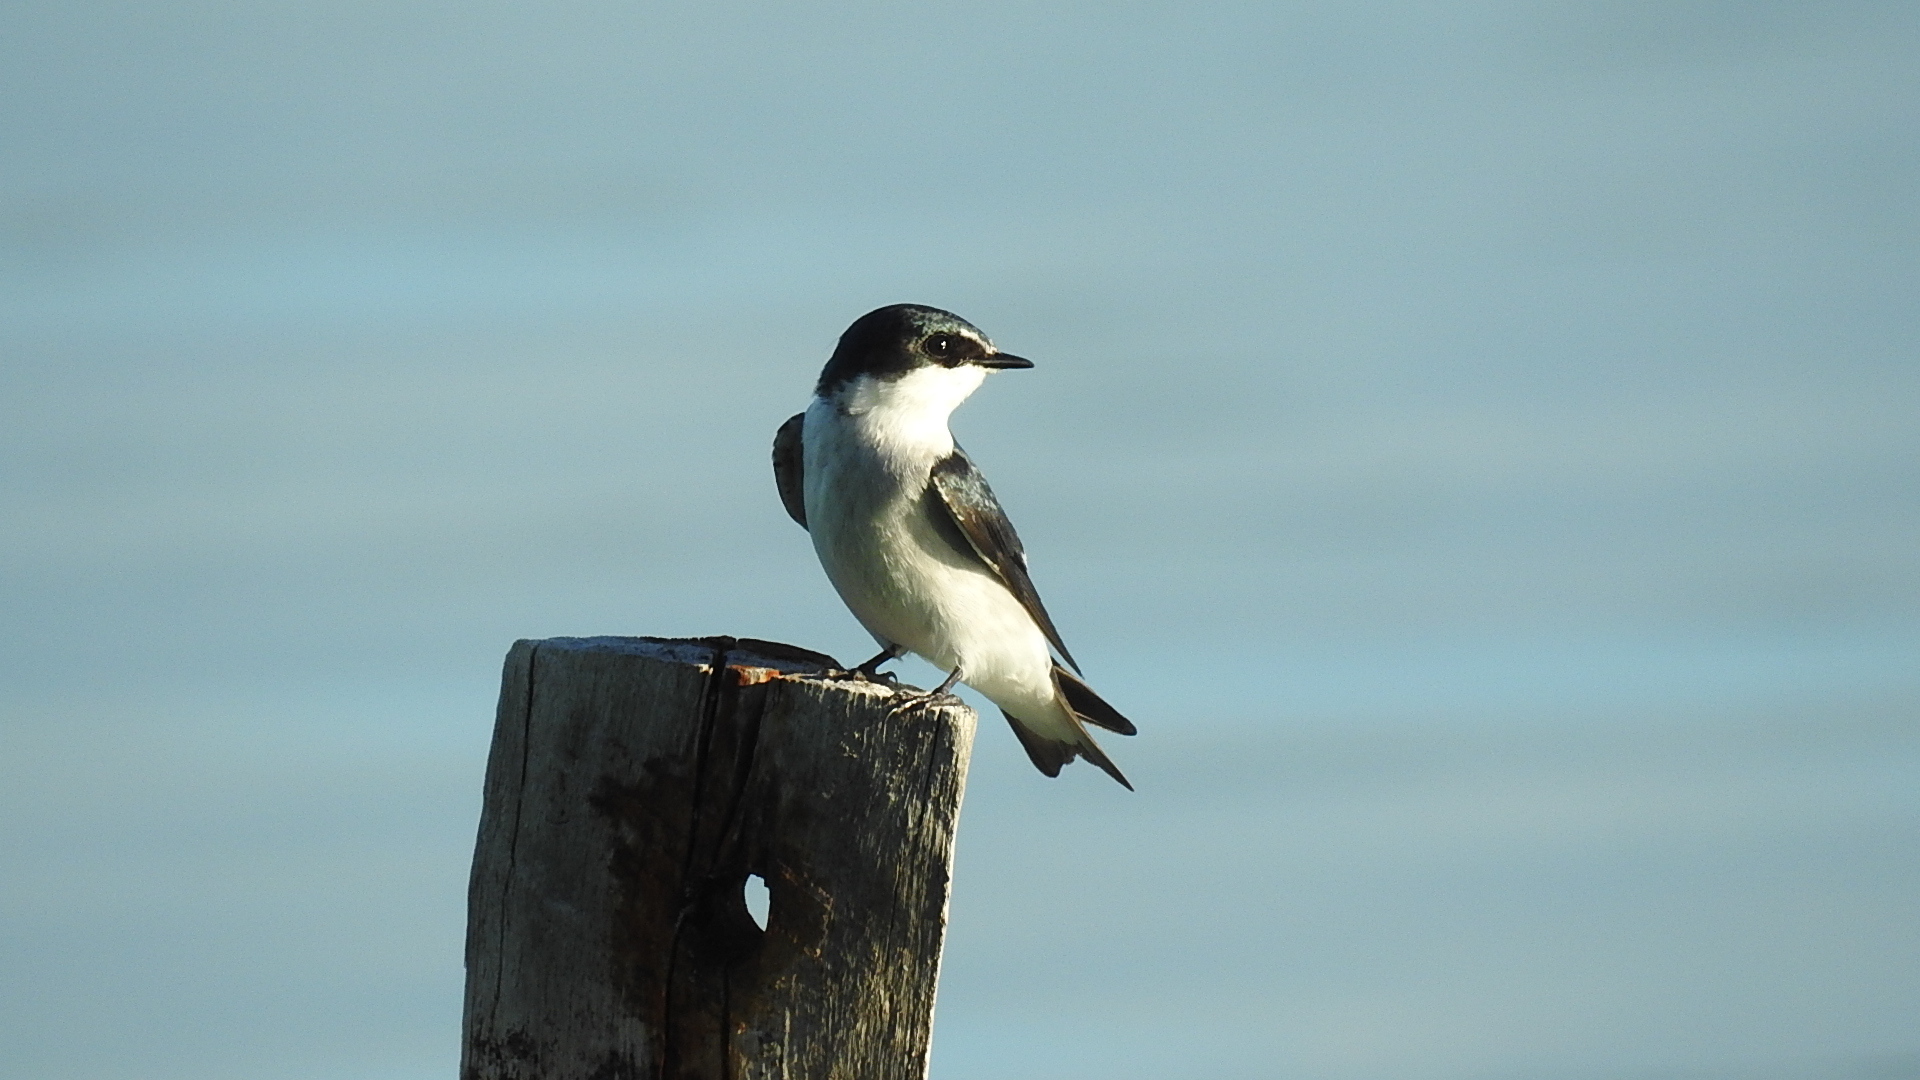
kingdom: Animalia
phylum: Chordata
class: Aves
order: Passeriformes
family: Hirundinidae
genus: Tachycineta
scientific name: Tachycineta albilinea
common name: Mangrove swallow
